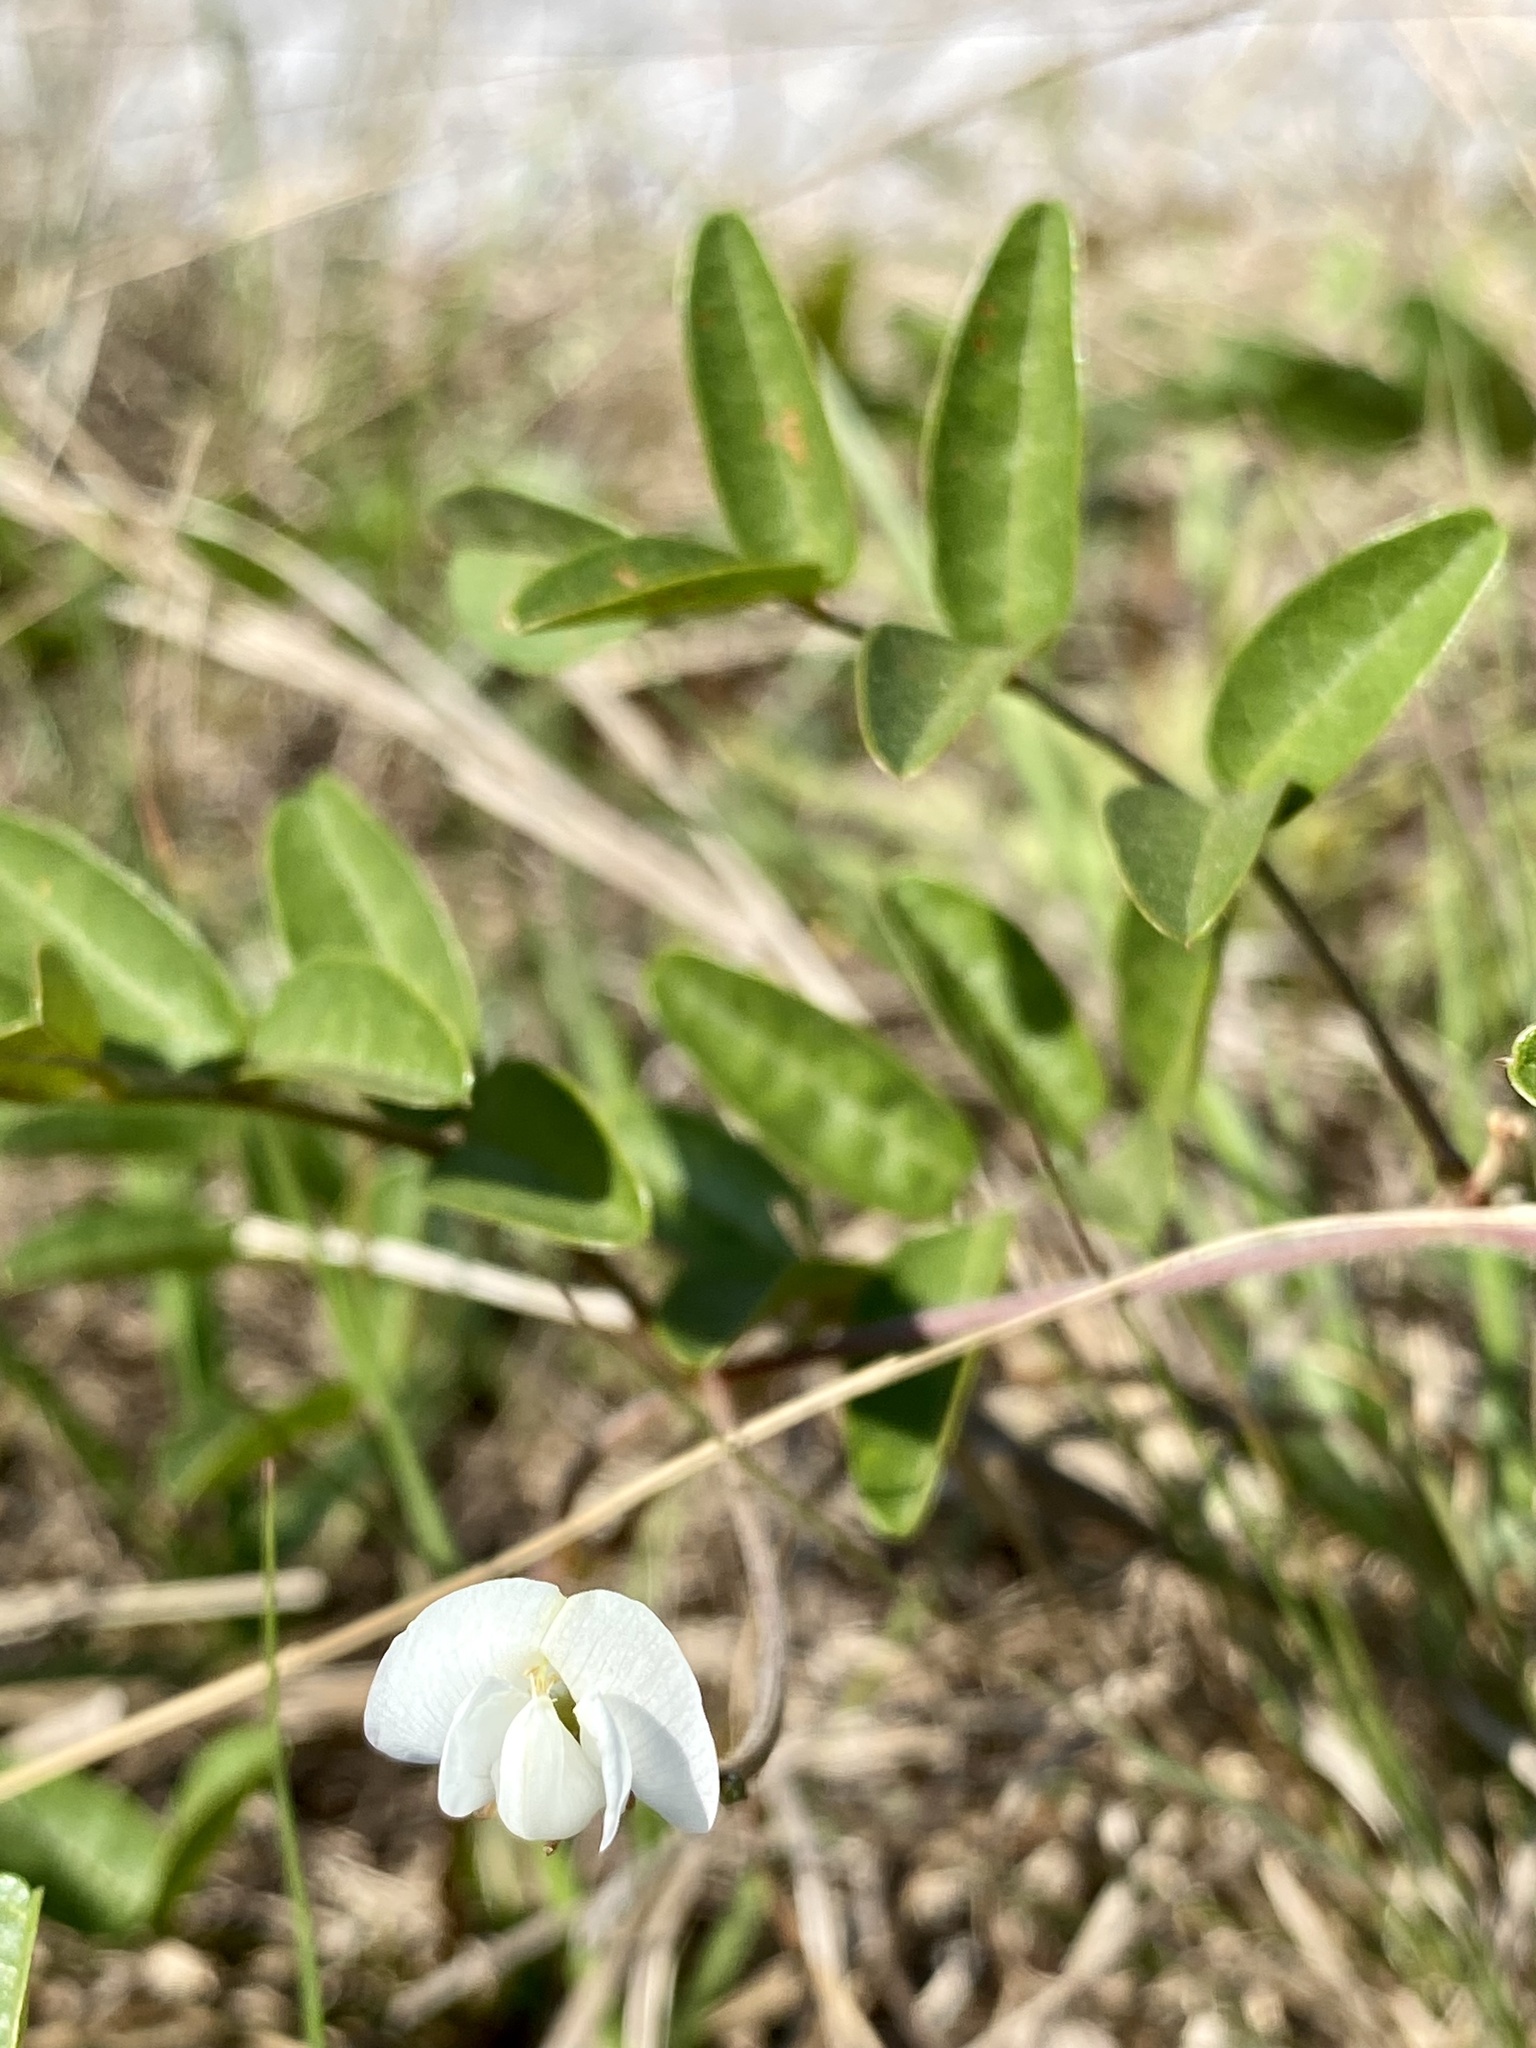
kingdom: Plantae
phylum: Tracheophyta
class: Magnoliopsida
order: Fabales
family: Fabaceae
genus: Galactia
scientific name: Galactia elliottii
